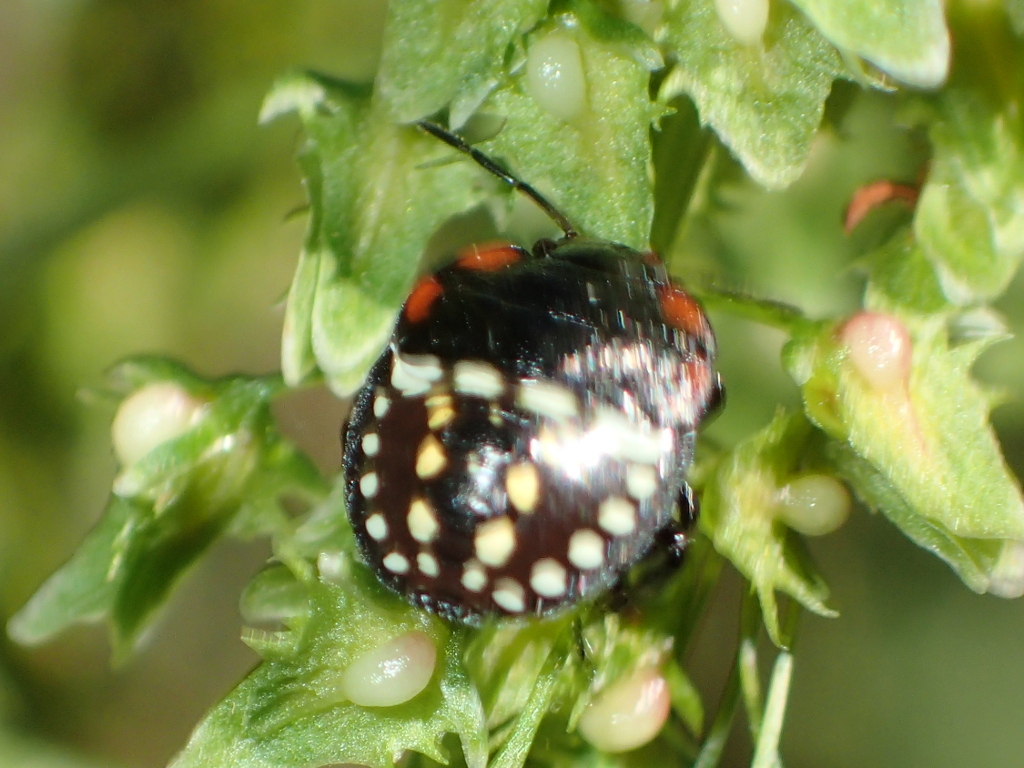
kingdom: Animalia
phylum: Arthropoda
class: Insecta
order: Hemiptera
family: Pentatomidae
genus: Nezara
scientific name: Nezara viridula
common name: Southern green stink bug
